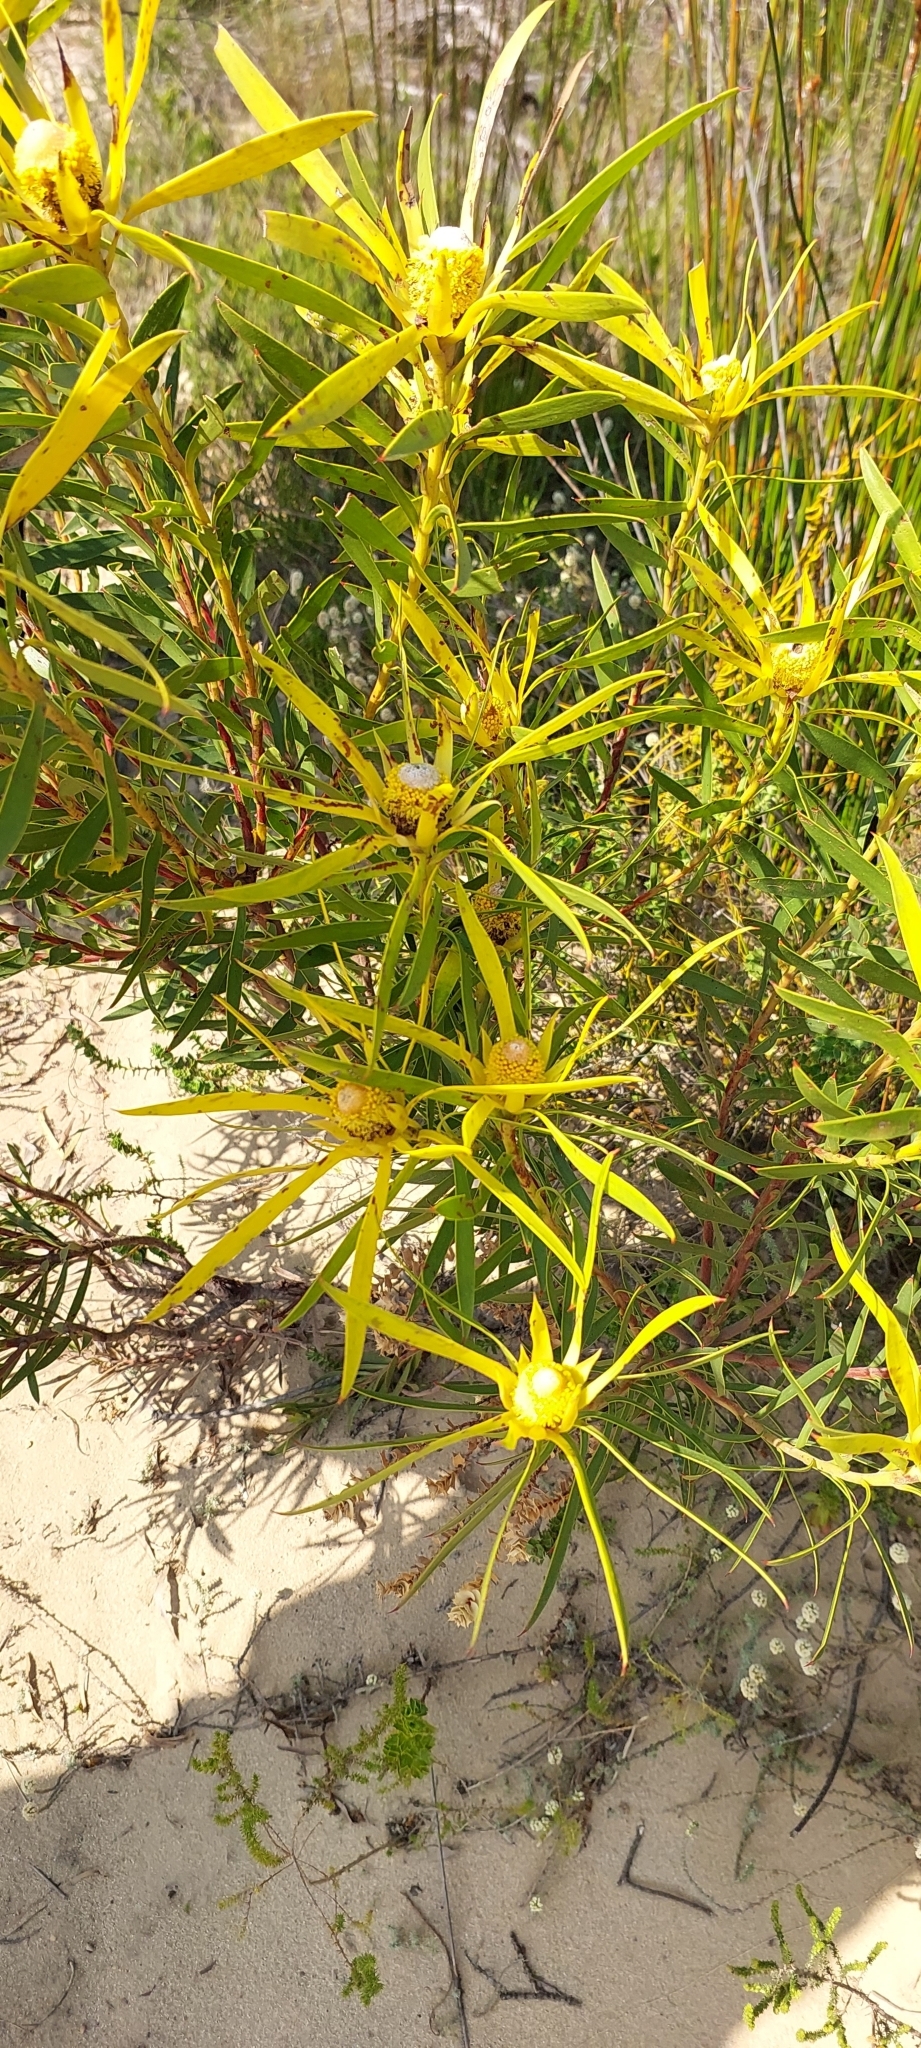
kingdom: Plantae
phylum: Tracheophyta
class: Magnoliopsida
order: Proteales
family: Proteaceae
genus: Leucadendron
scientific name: Leucadendron coniferum
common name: Dune conebush
